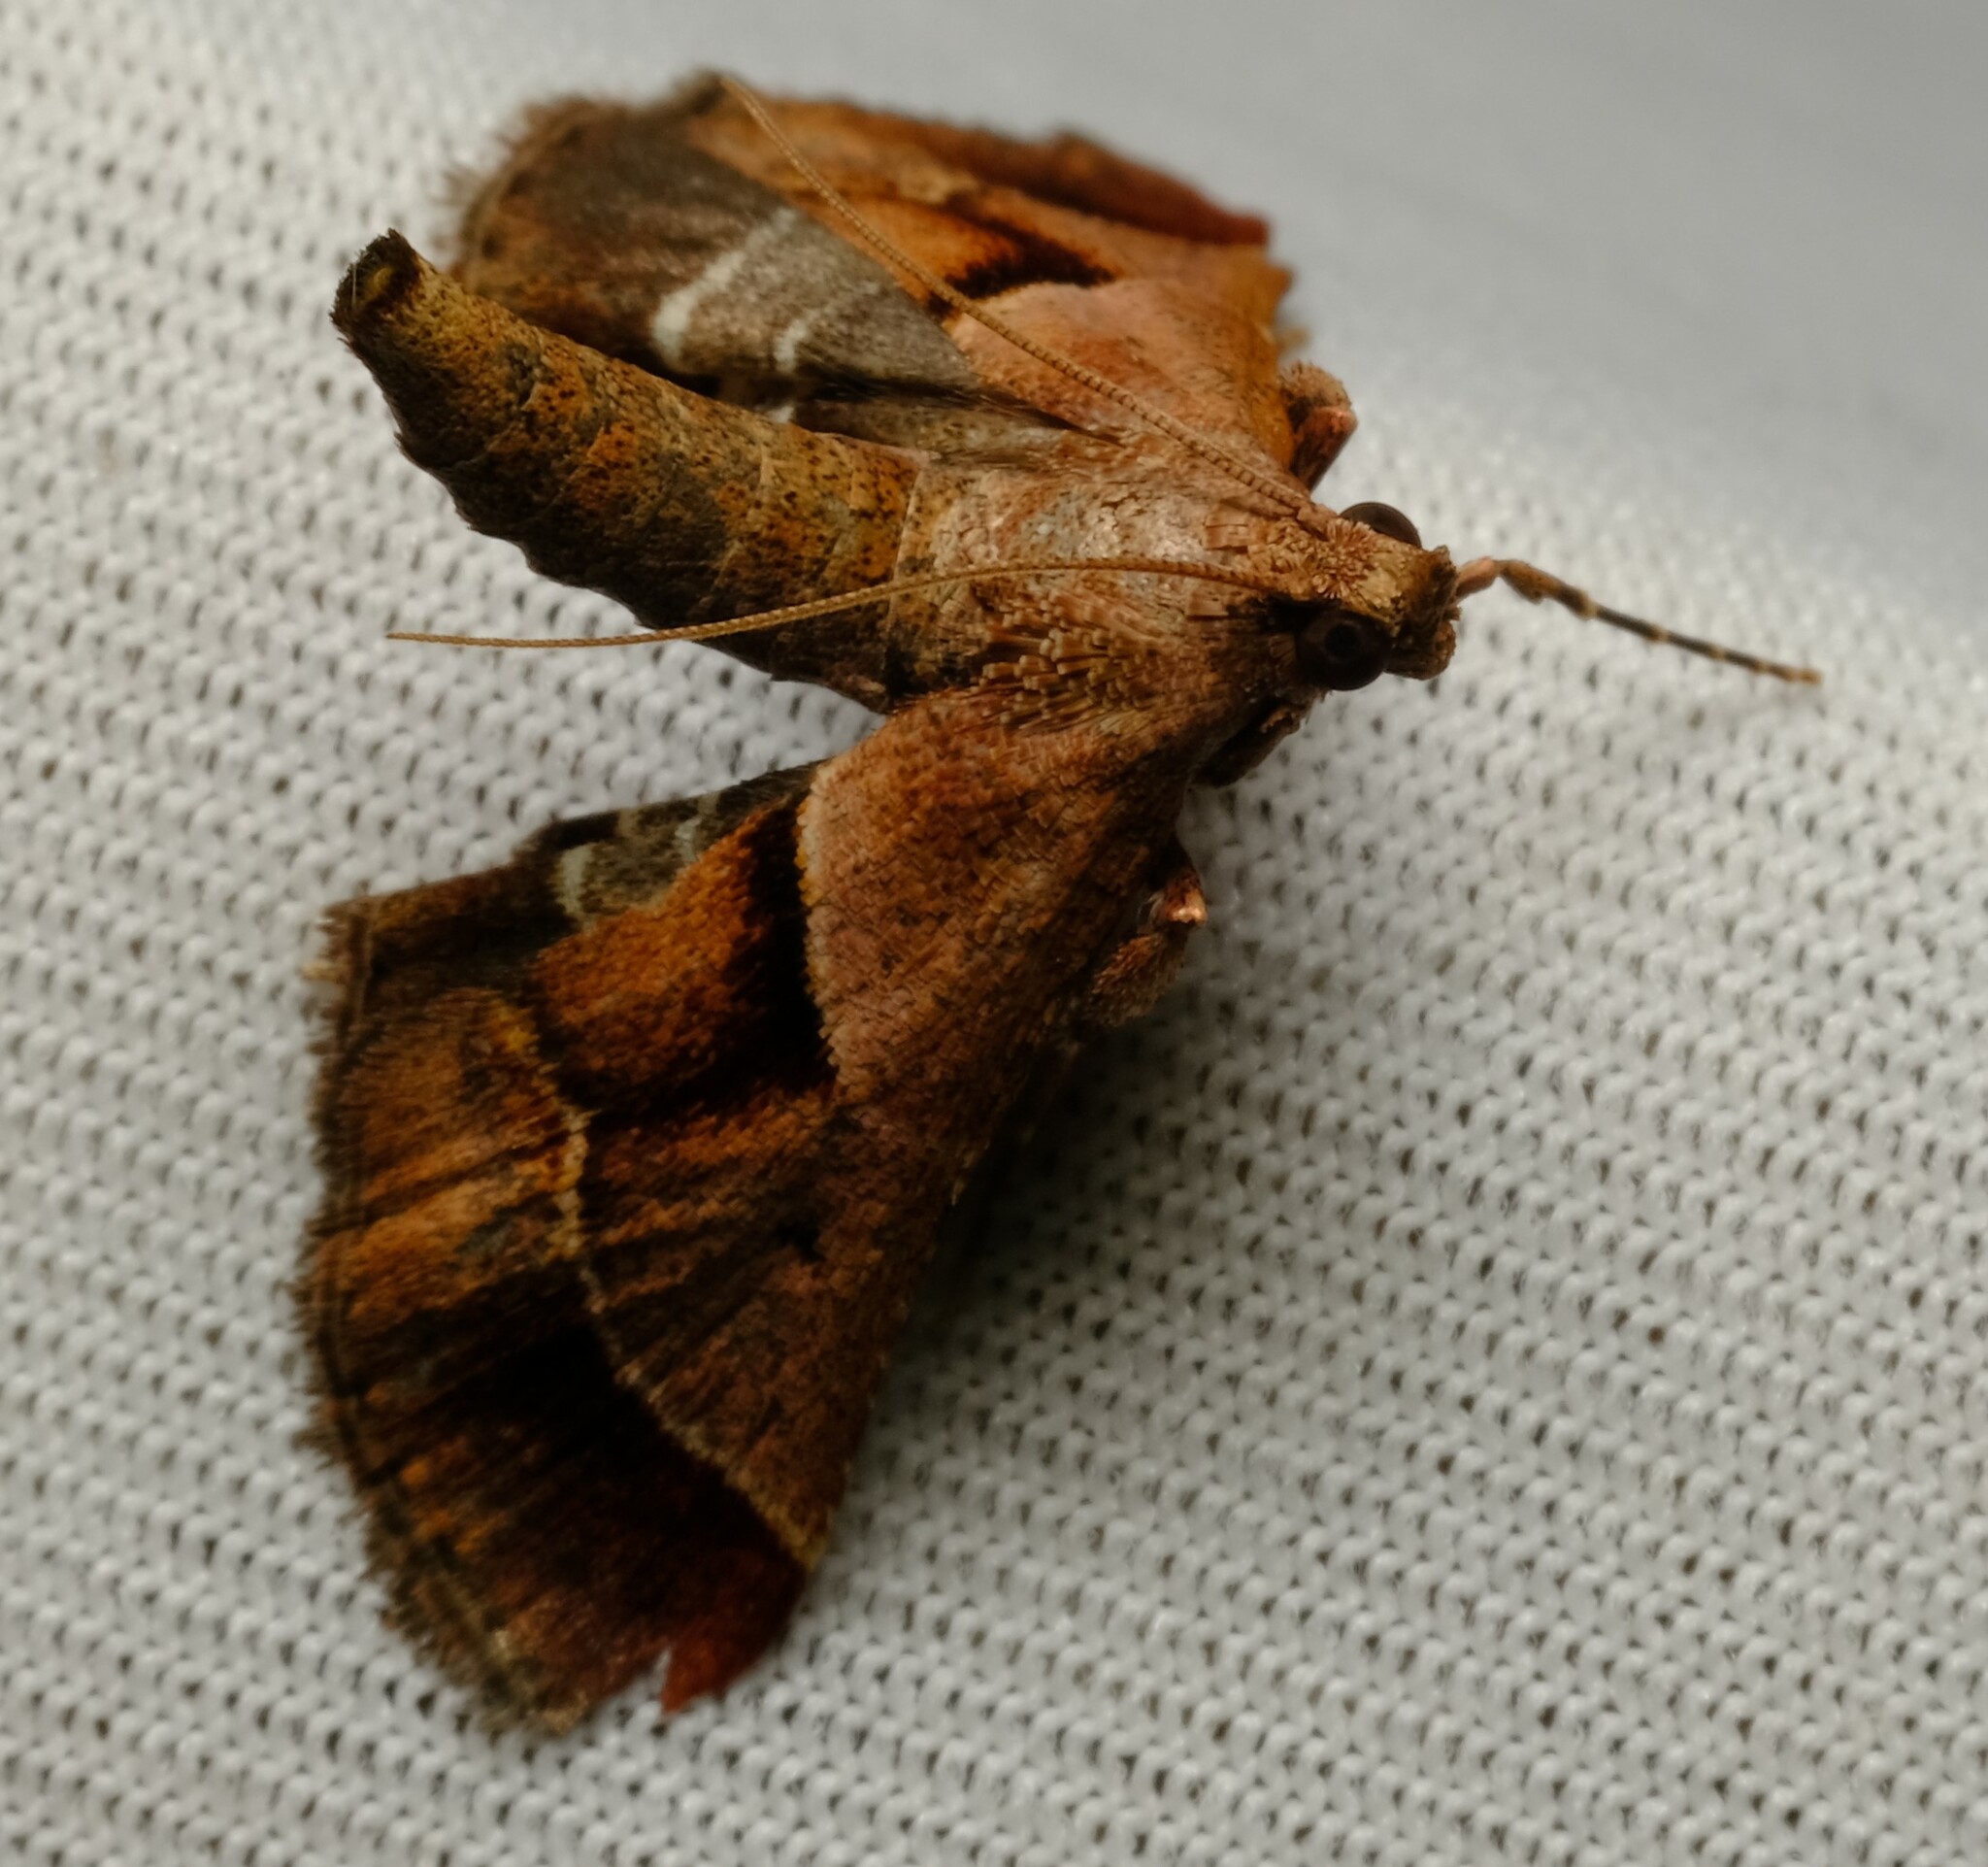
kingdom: Animalia
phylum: Arthropoda
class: Insecta
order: Lepidoptera
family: Pyralidae
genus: Gauna
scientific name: Gauna aegusalis
